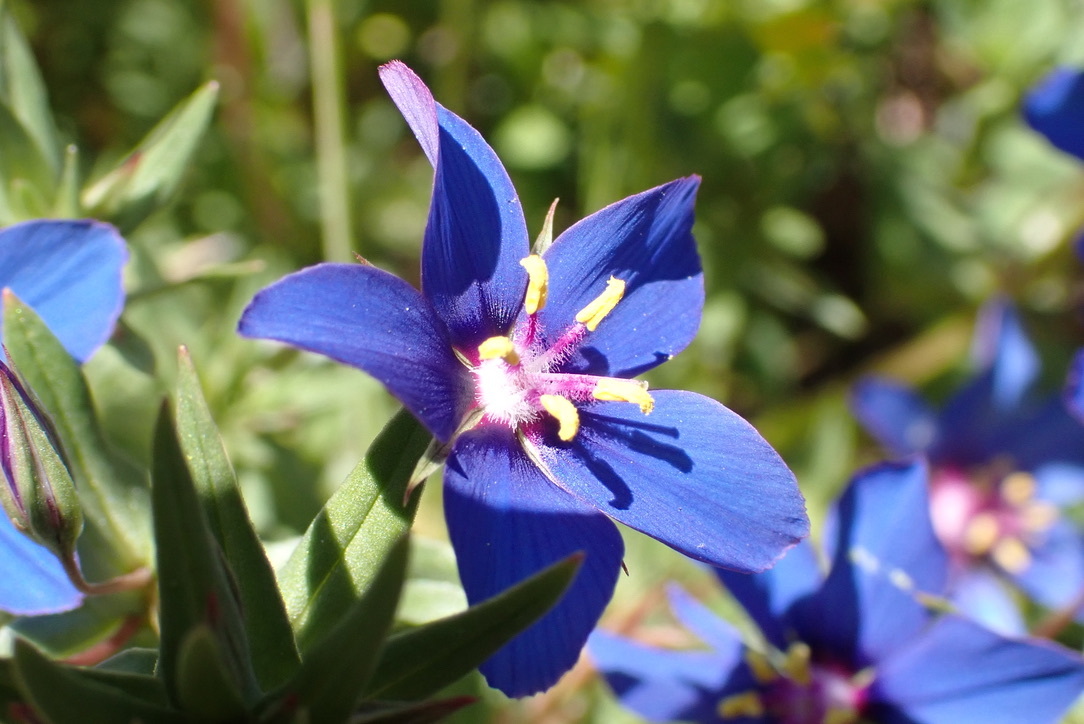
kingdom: Plantae
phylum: Tracheophyta
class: Magnoliopsida
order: Ericales
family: Primulaceae
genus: Lysimachia
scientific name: Lysimachia monelli
